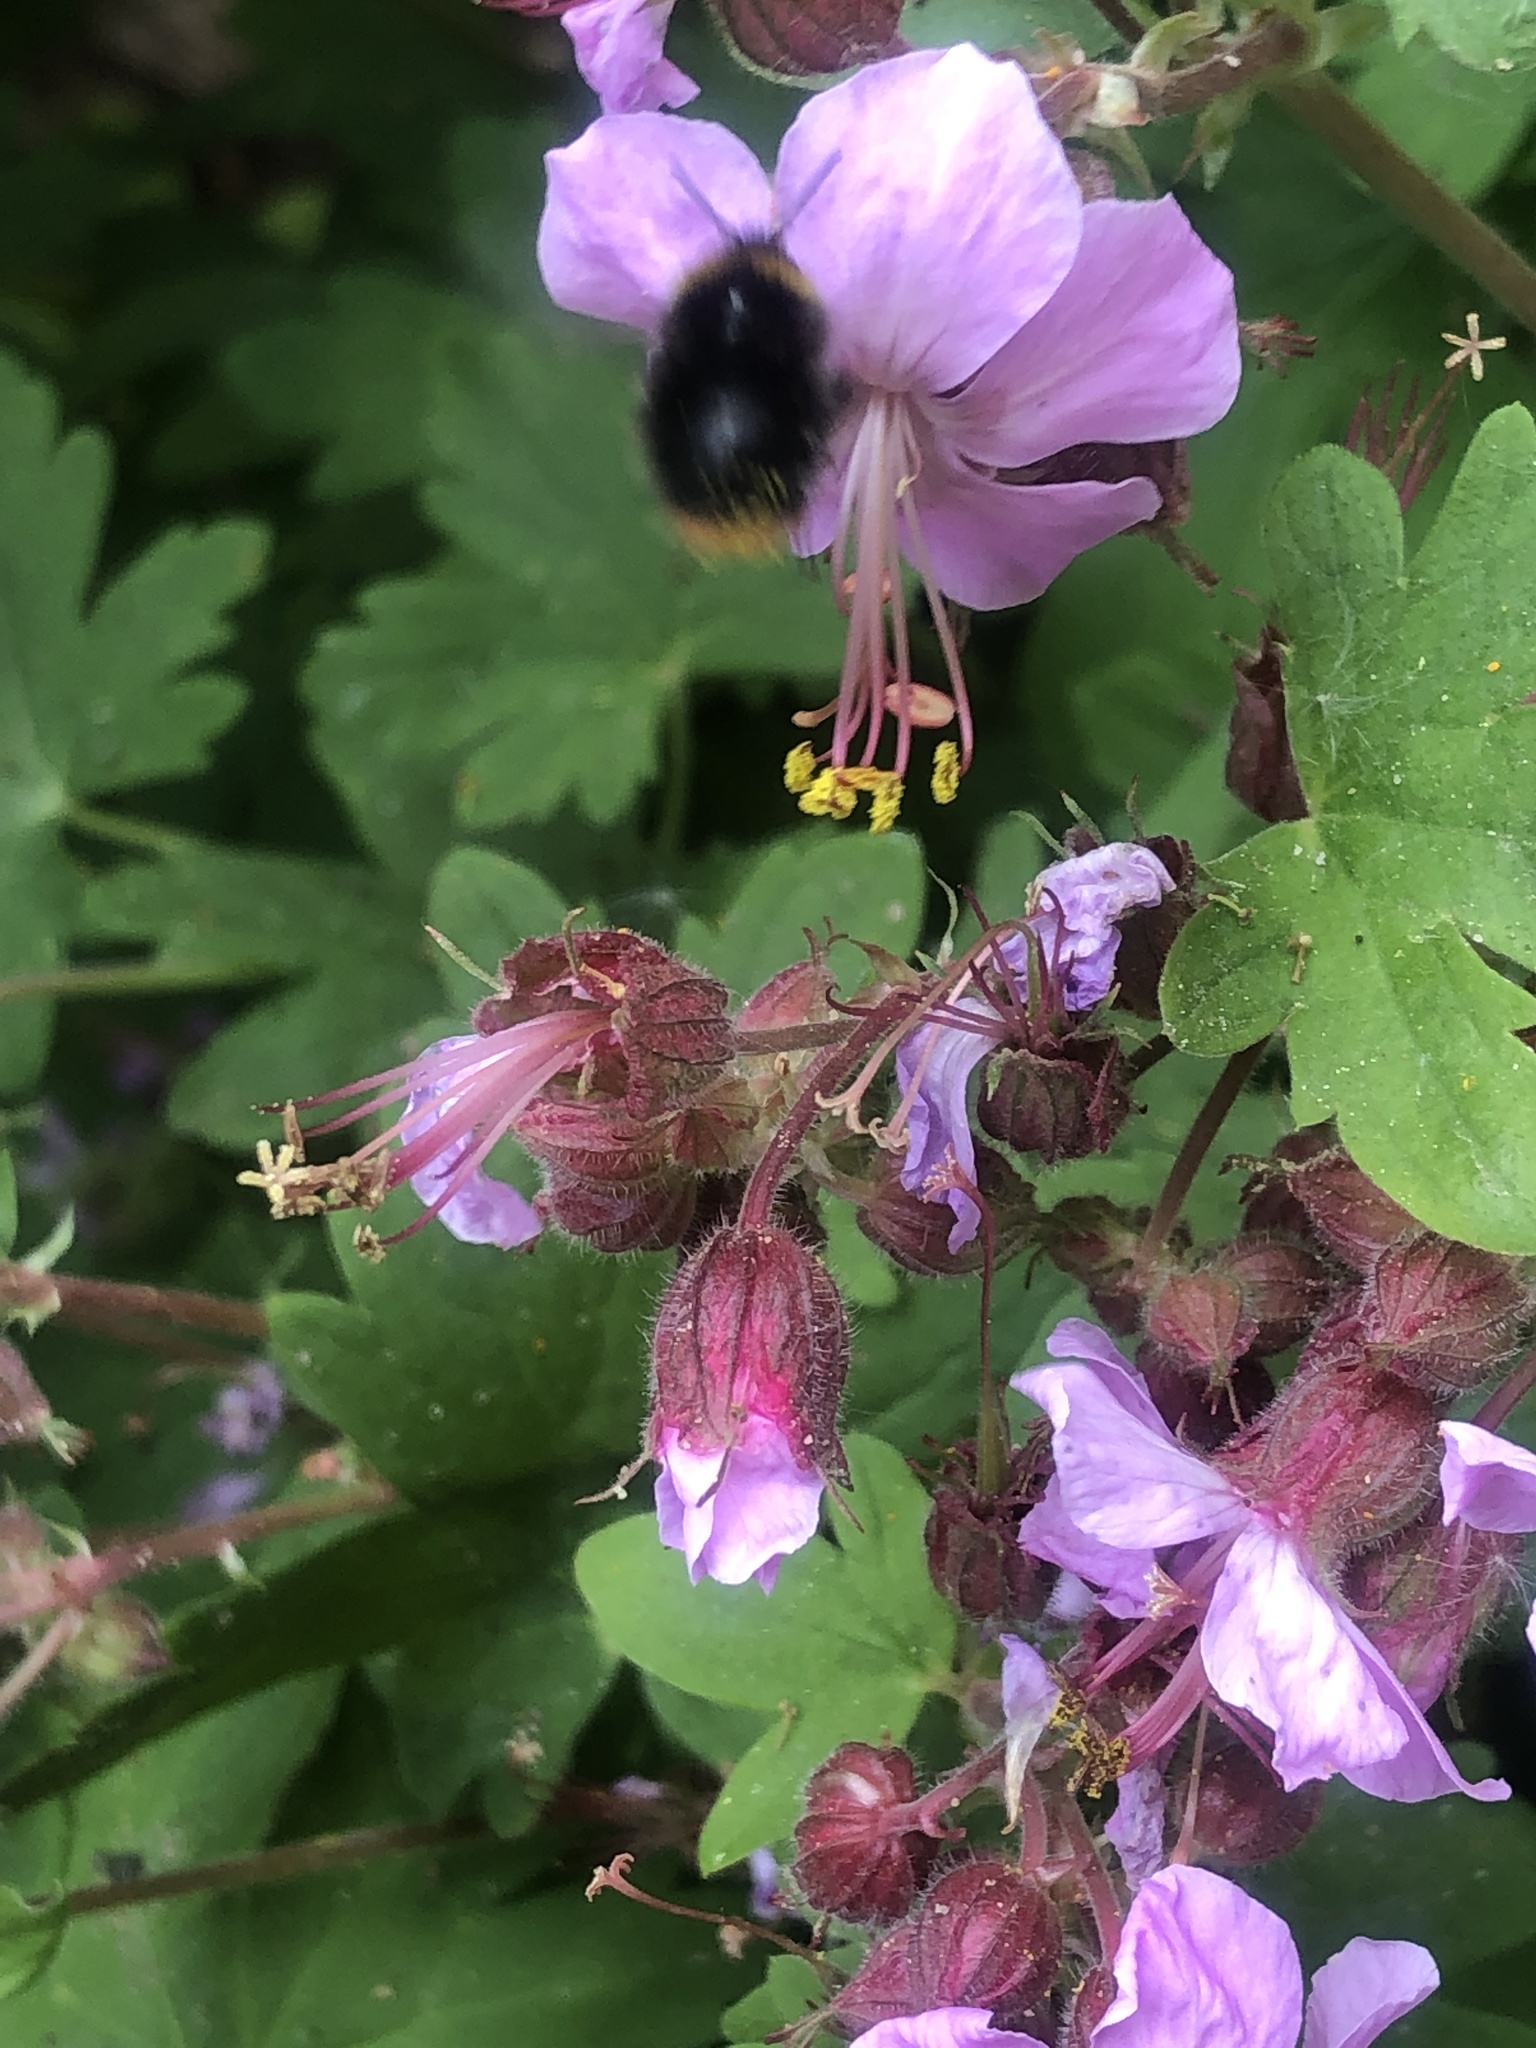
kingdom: Animalia
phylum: Arthropoda
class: Insecta
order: Hymenoptera
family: Apidae
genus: Bombus
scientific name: Bombus pratorum
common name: Early humble-bee
